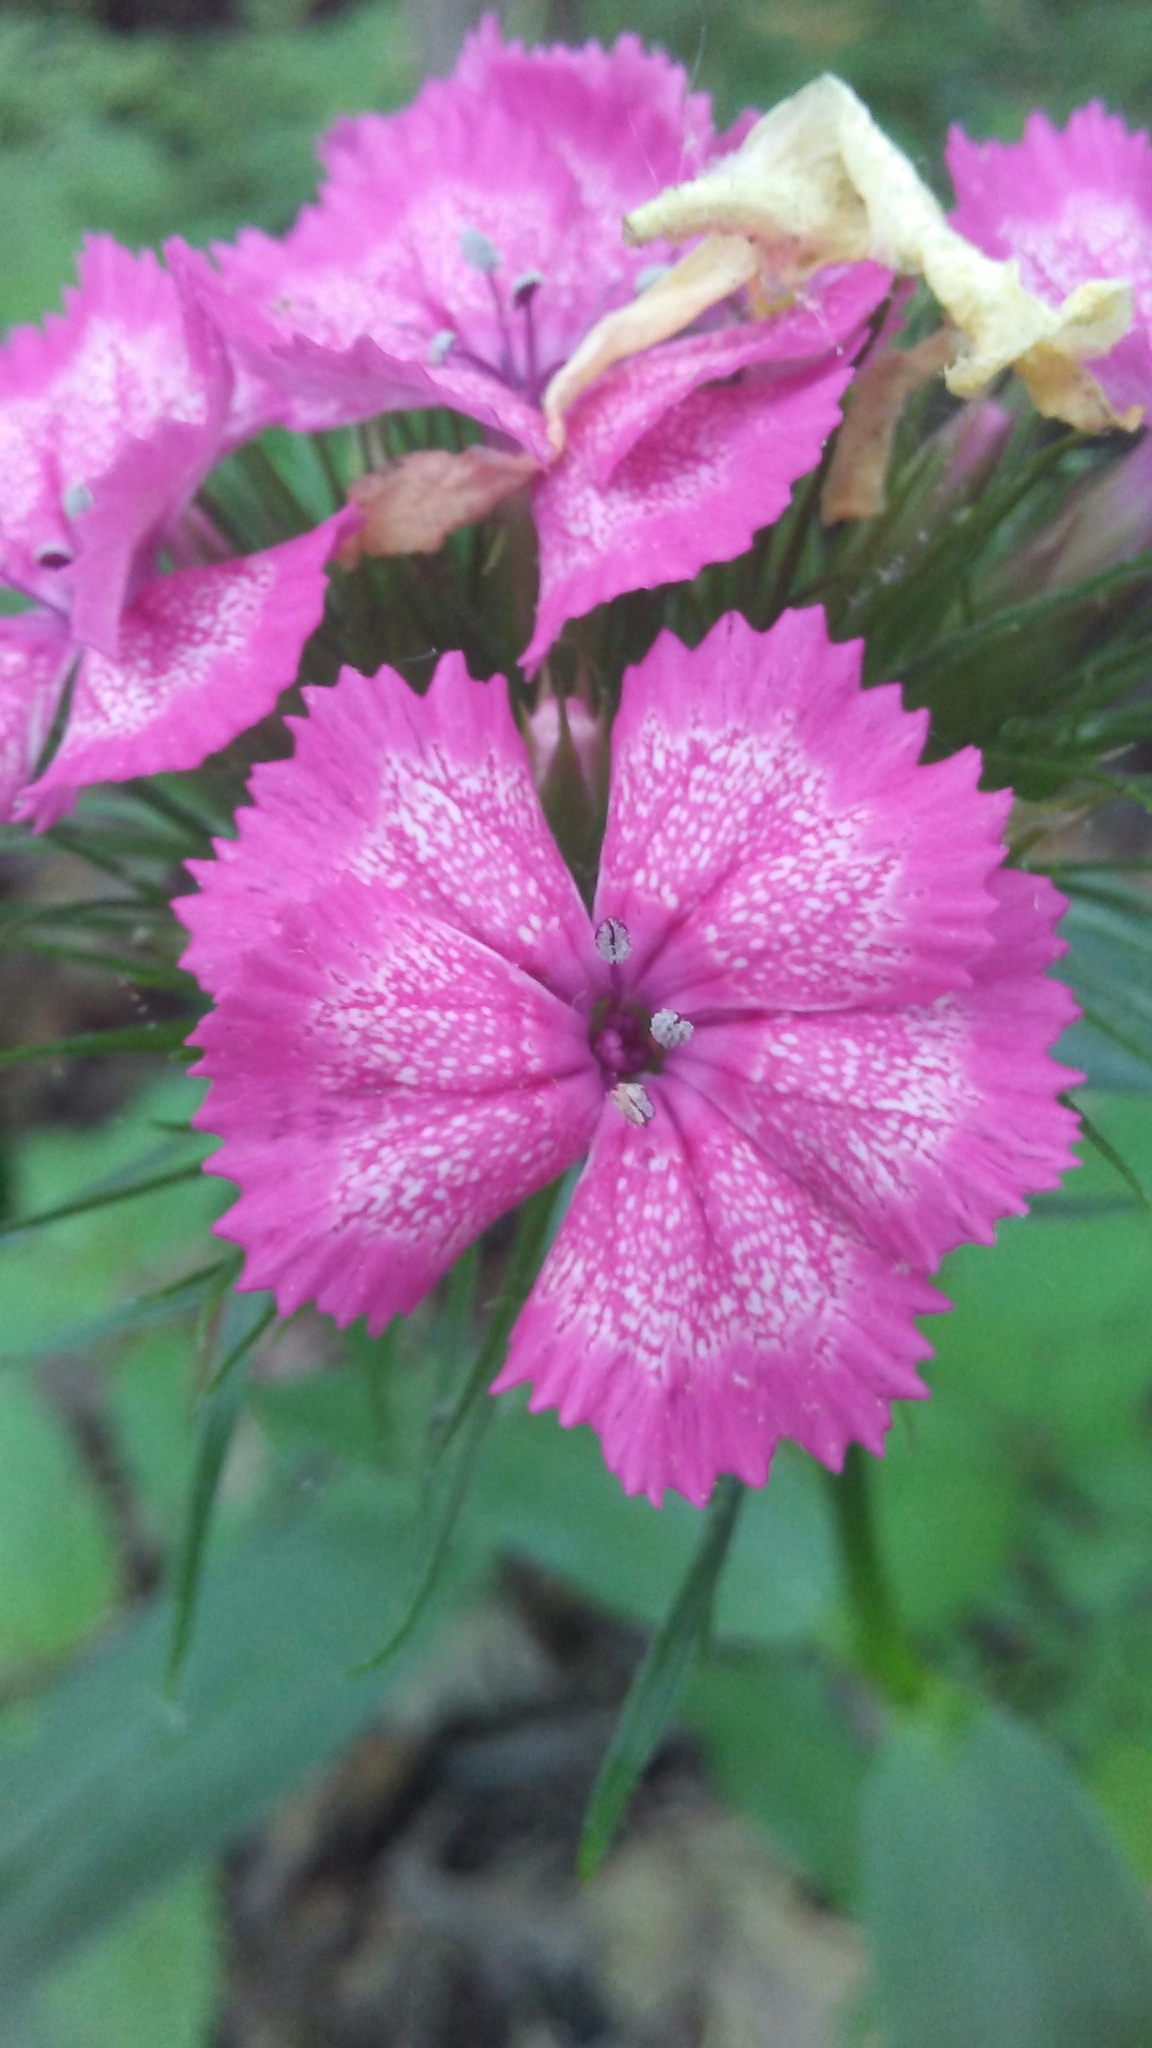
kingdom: Plantae
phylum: Tracheophyta
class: Magnoliopsida
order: Caryophyllales
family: Caryophyllaceae
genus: Dianthus
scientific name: Dianthus barbatus
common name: Sweet-william
